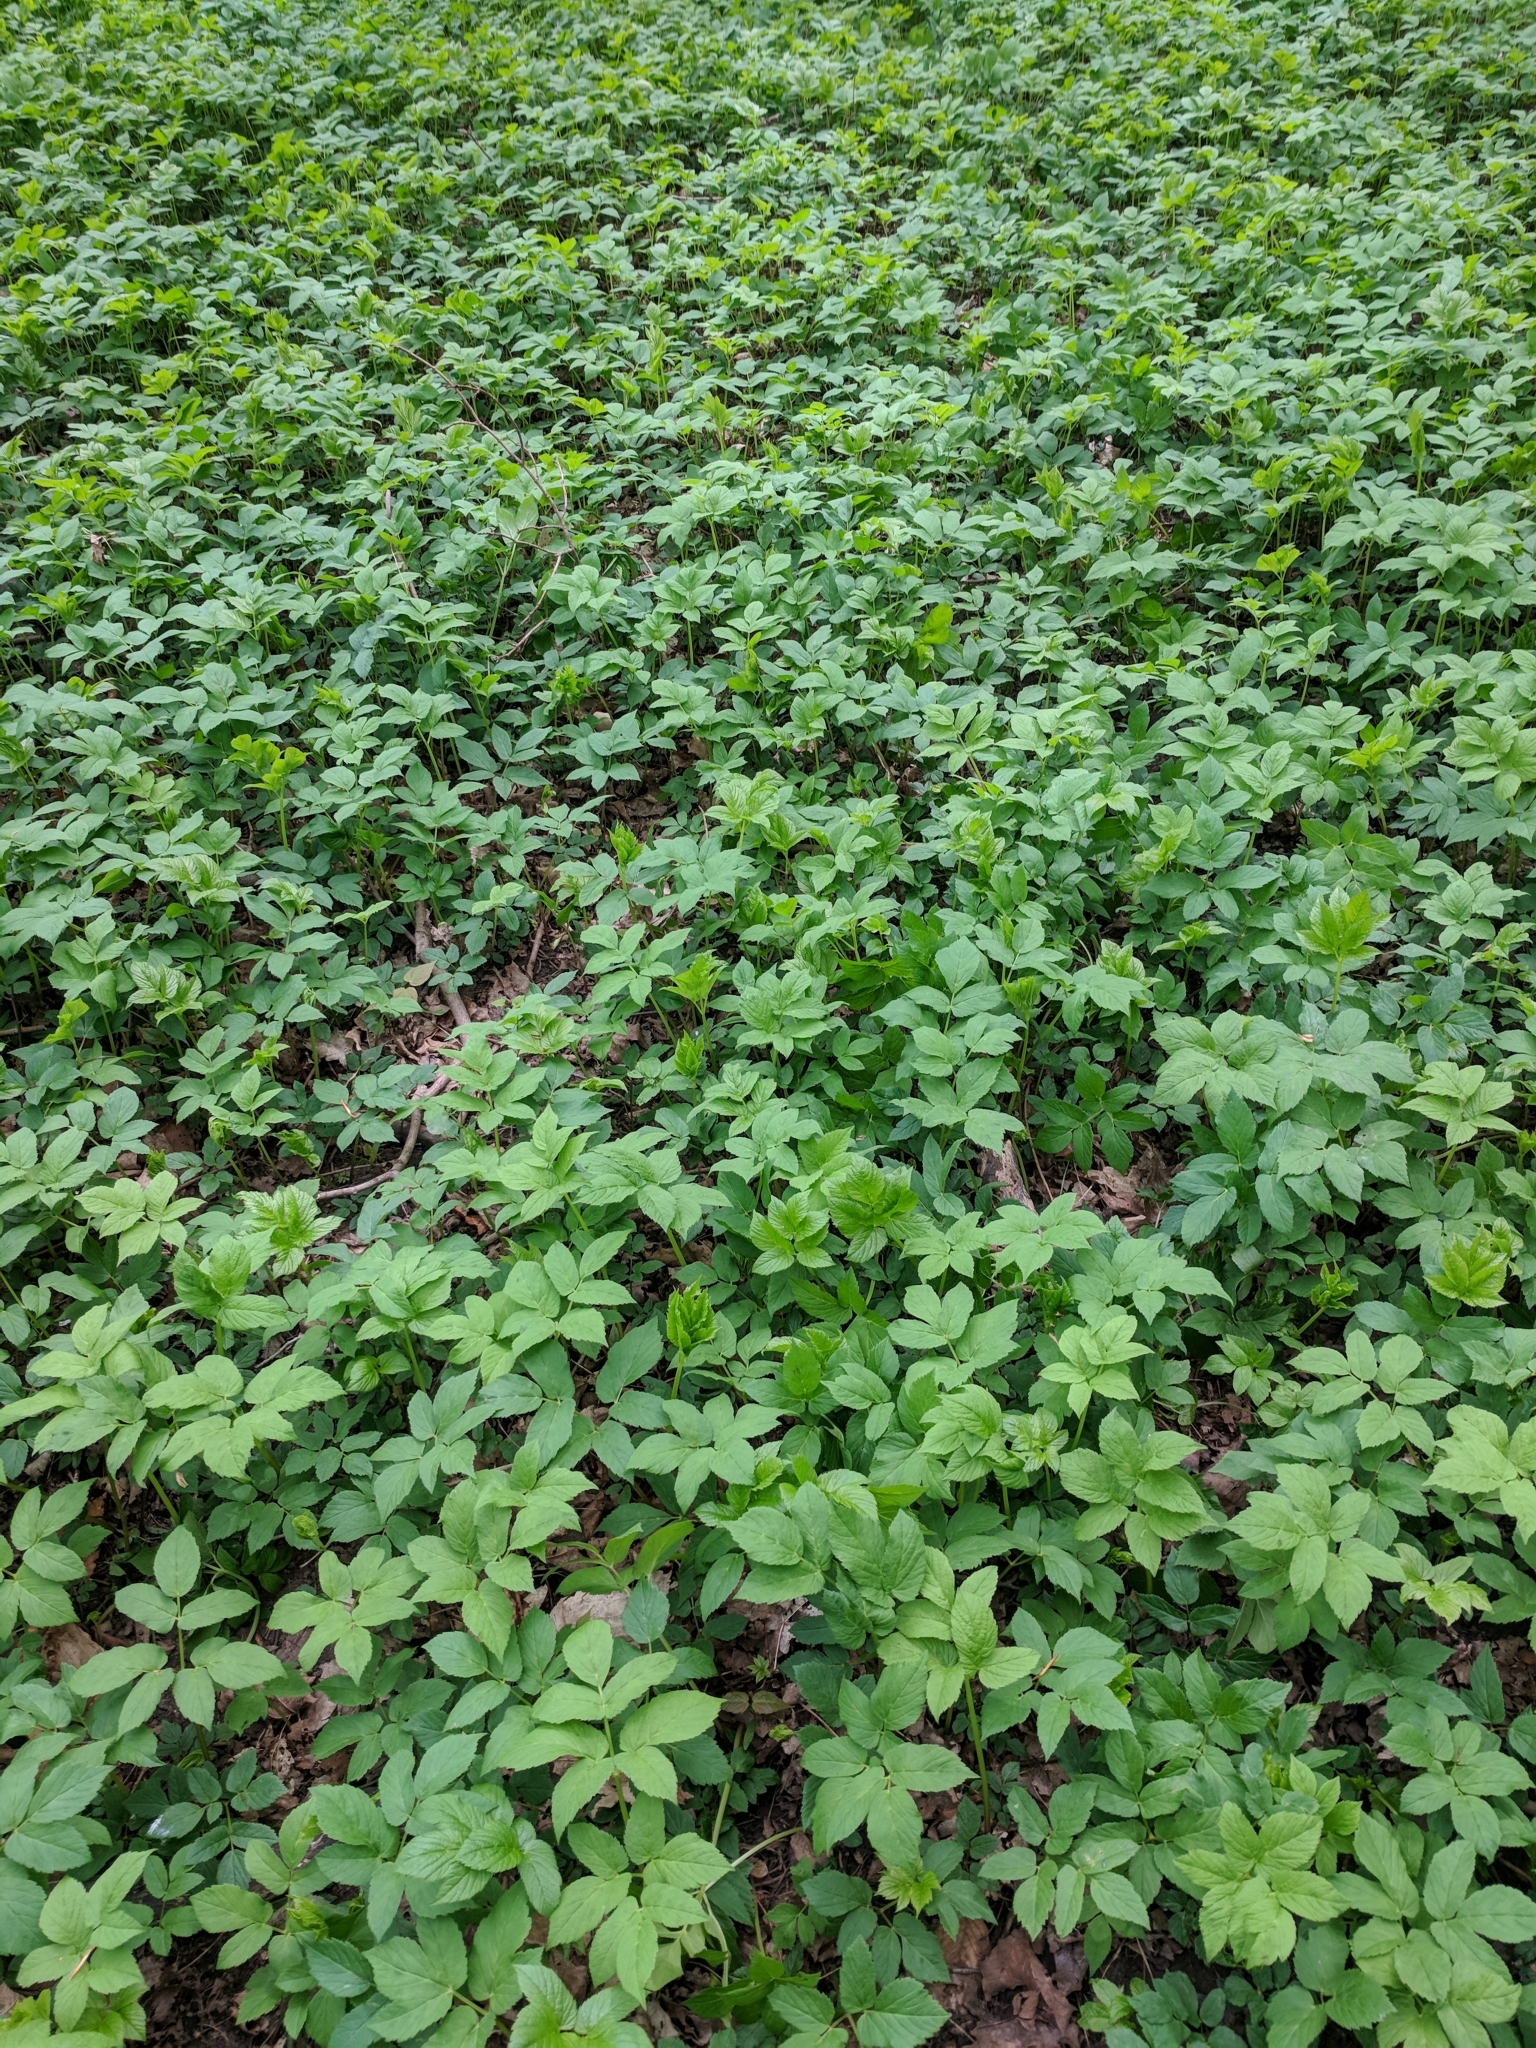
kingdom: Plantae
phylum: Tracheophyta
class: Magnoliopsida
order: Apiales
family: Apiaceae
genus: Aegopodium
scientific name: Aegopodium podagraria
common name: Ground-elder
